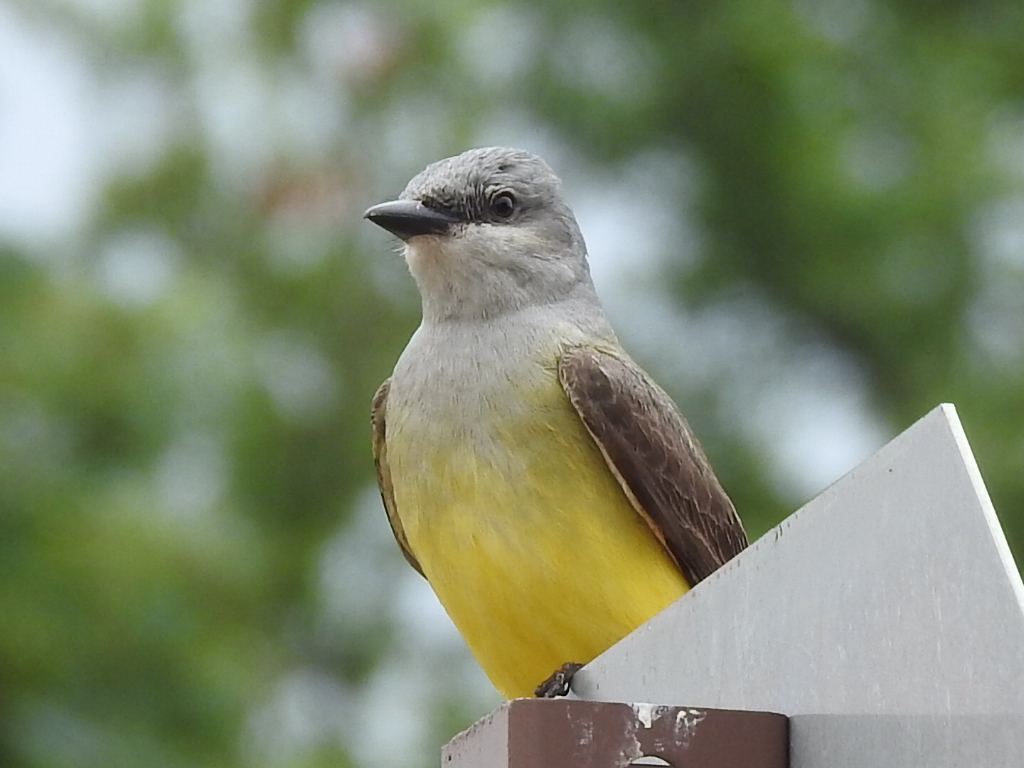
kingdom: Animalia
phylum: Chordata
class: Aves
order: Passeriformes
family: Tyrannidae
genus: Tyrannus
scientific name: Tyrannus verticalis
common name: Western kingbird
